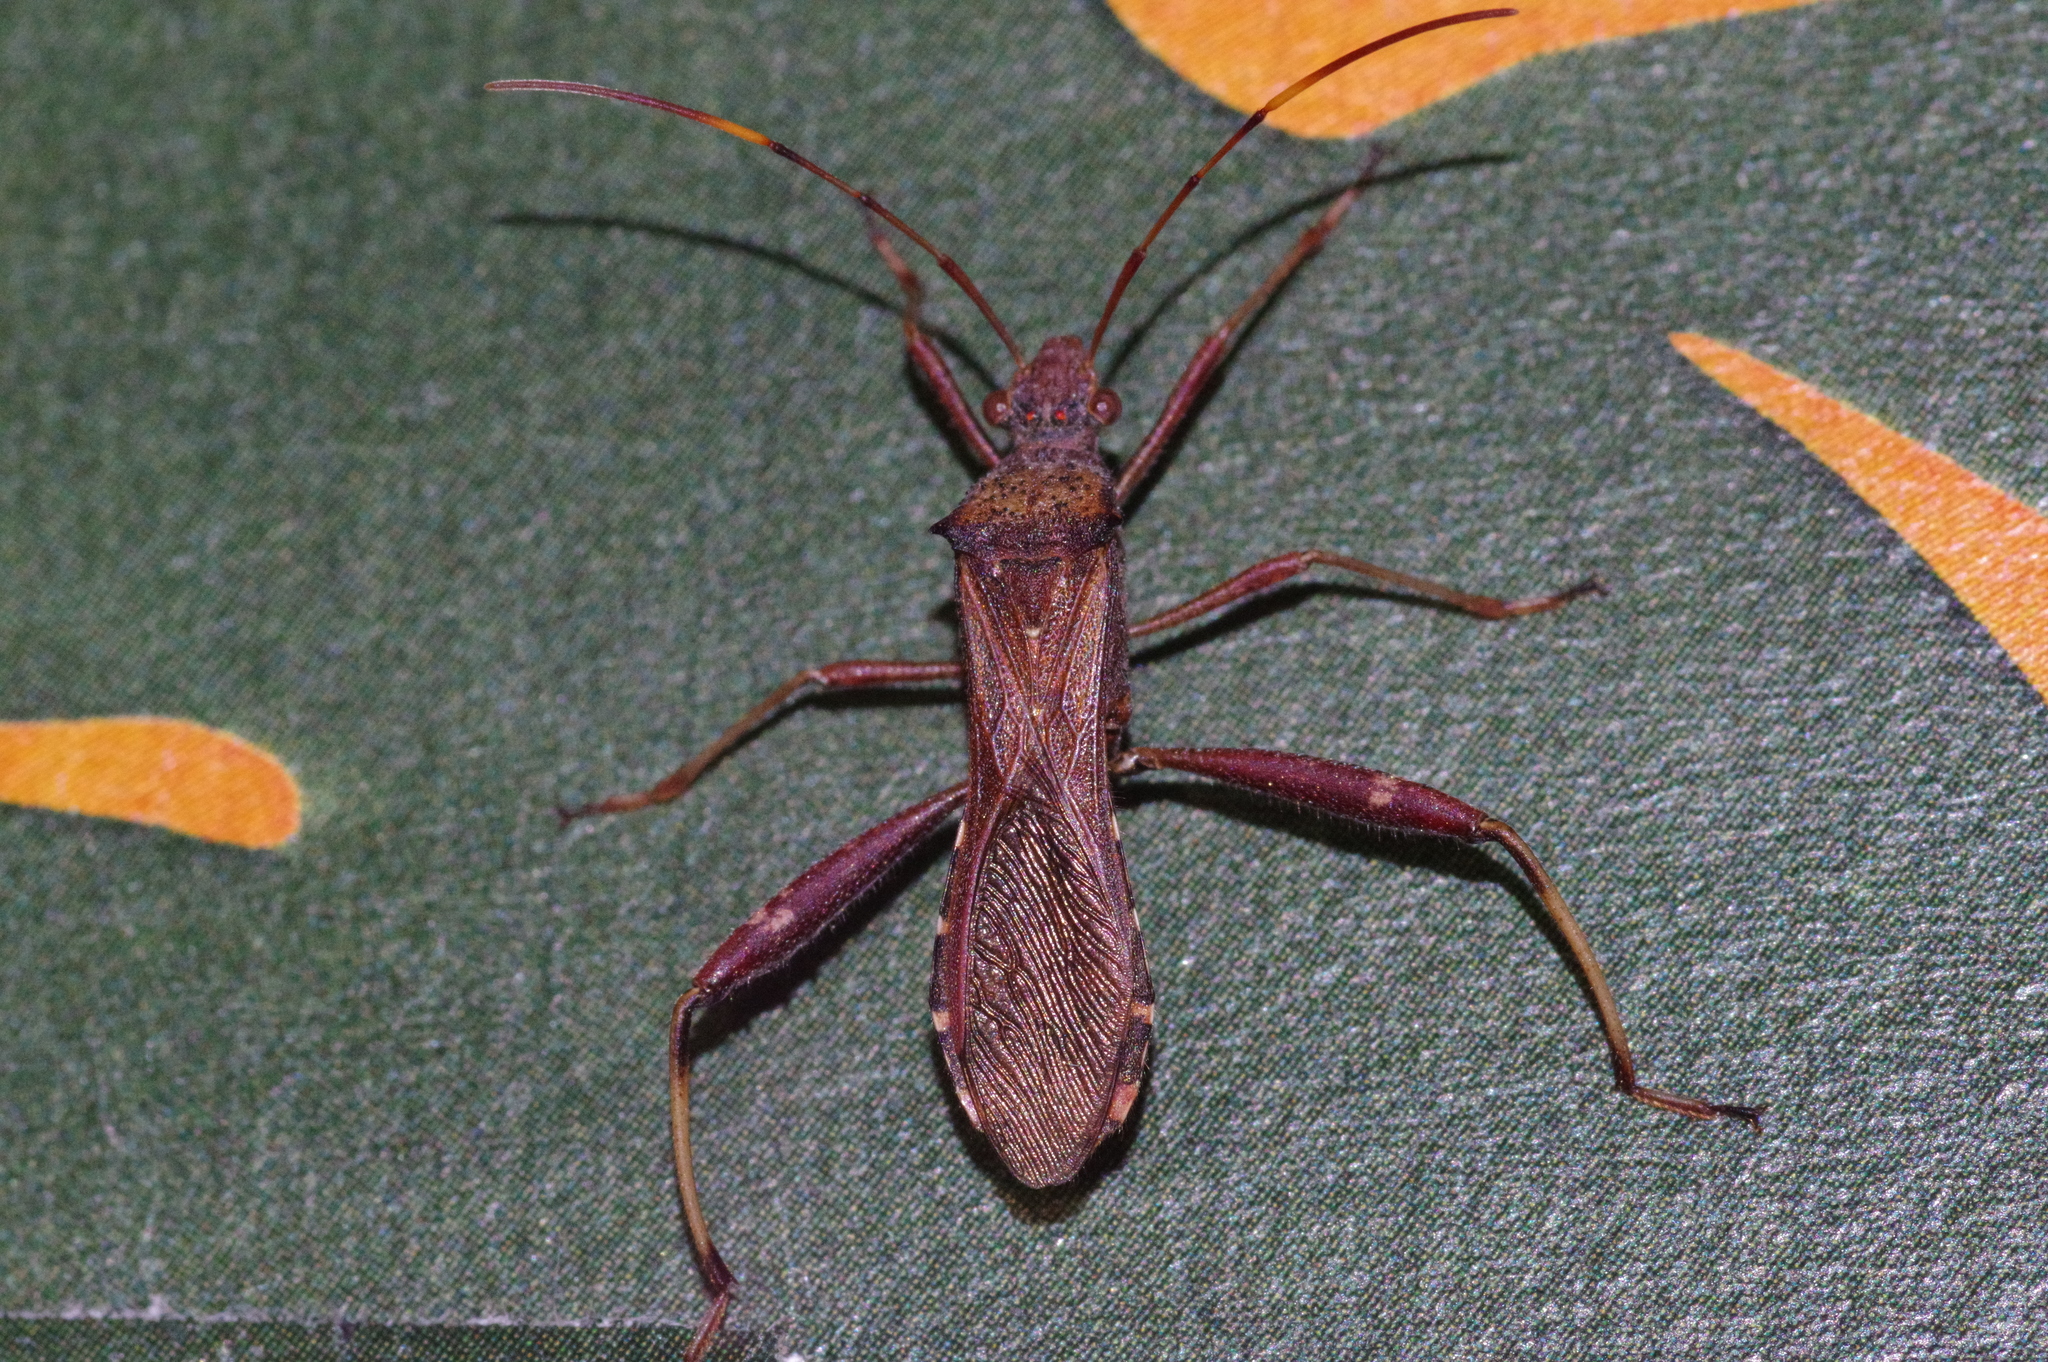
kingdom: Animalia
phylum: Arthropoda
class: Insecta
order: Hemiptera
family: Alydidae
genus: Riptortus
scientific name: Riptortus pedestris
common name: Bean bug
